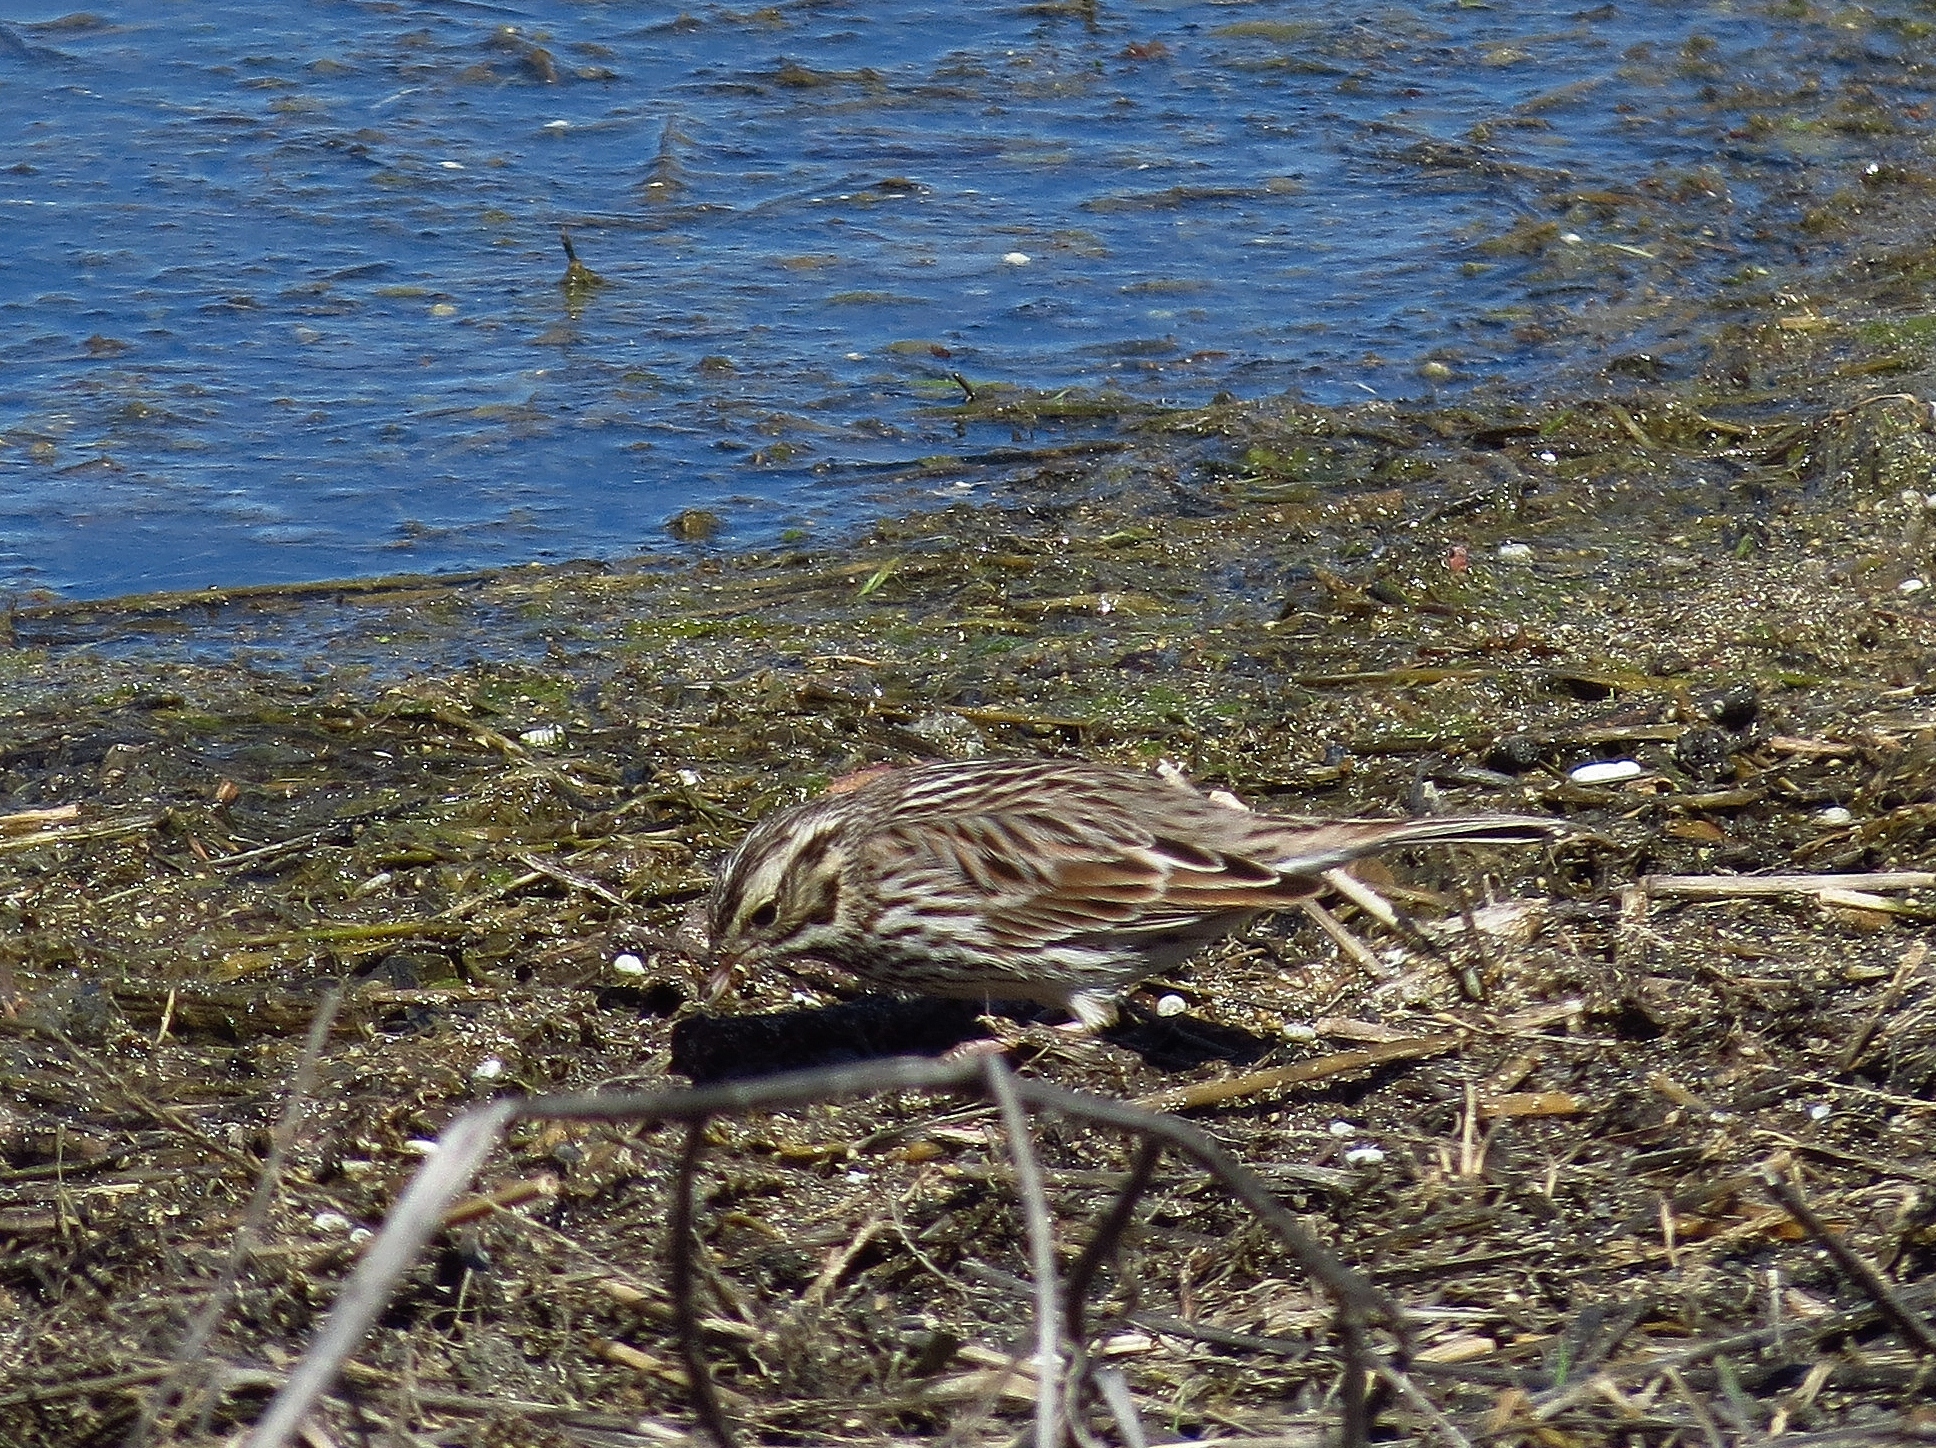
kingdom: Animalia
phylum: Chordata
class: Aves
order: Passeriformes
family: Passerellidae
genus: Passerculus
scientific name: Passerculus sandwichensis
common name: Savannah sparrow
